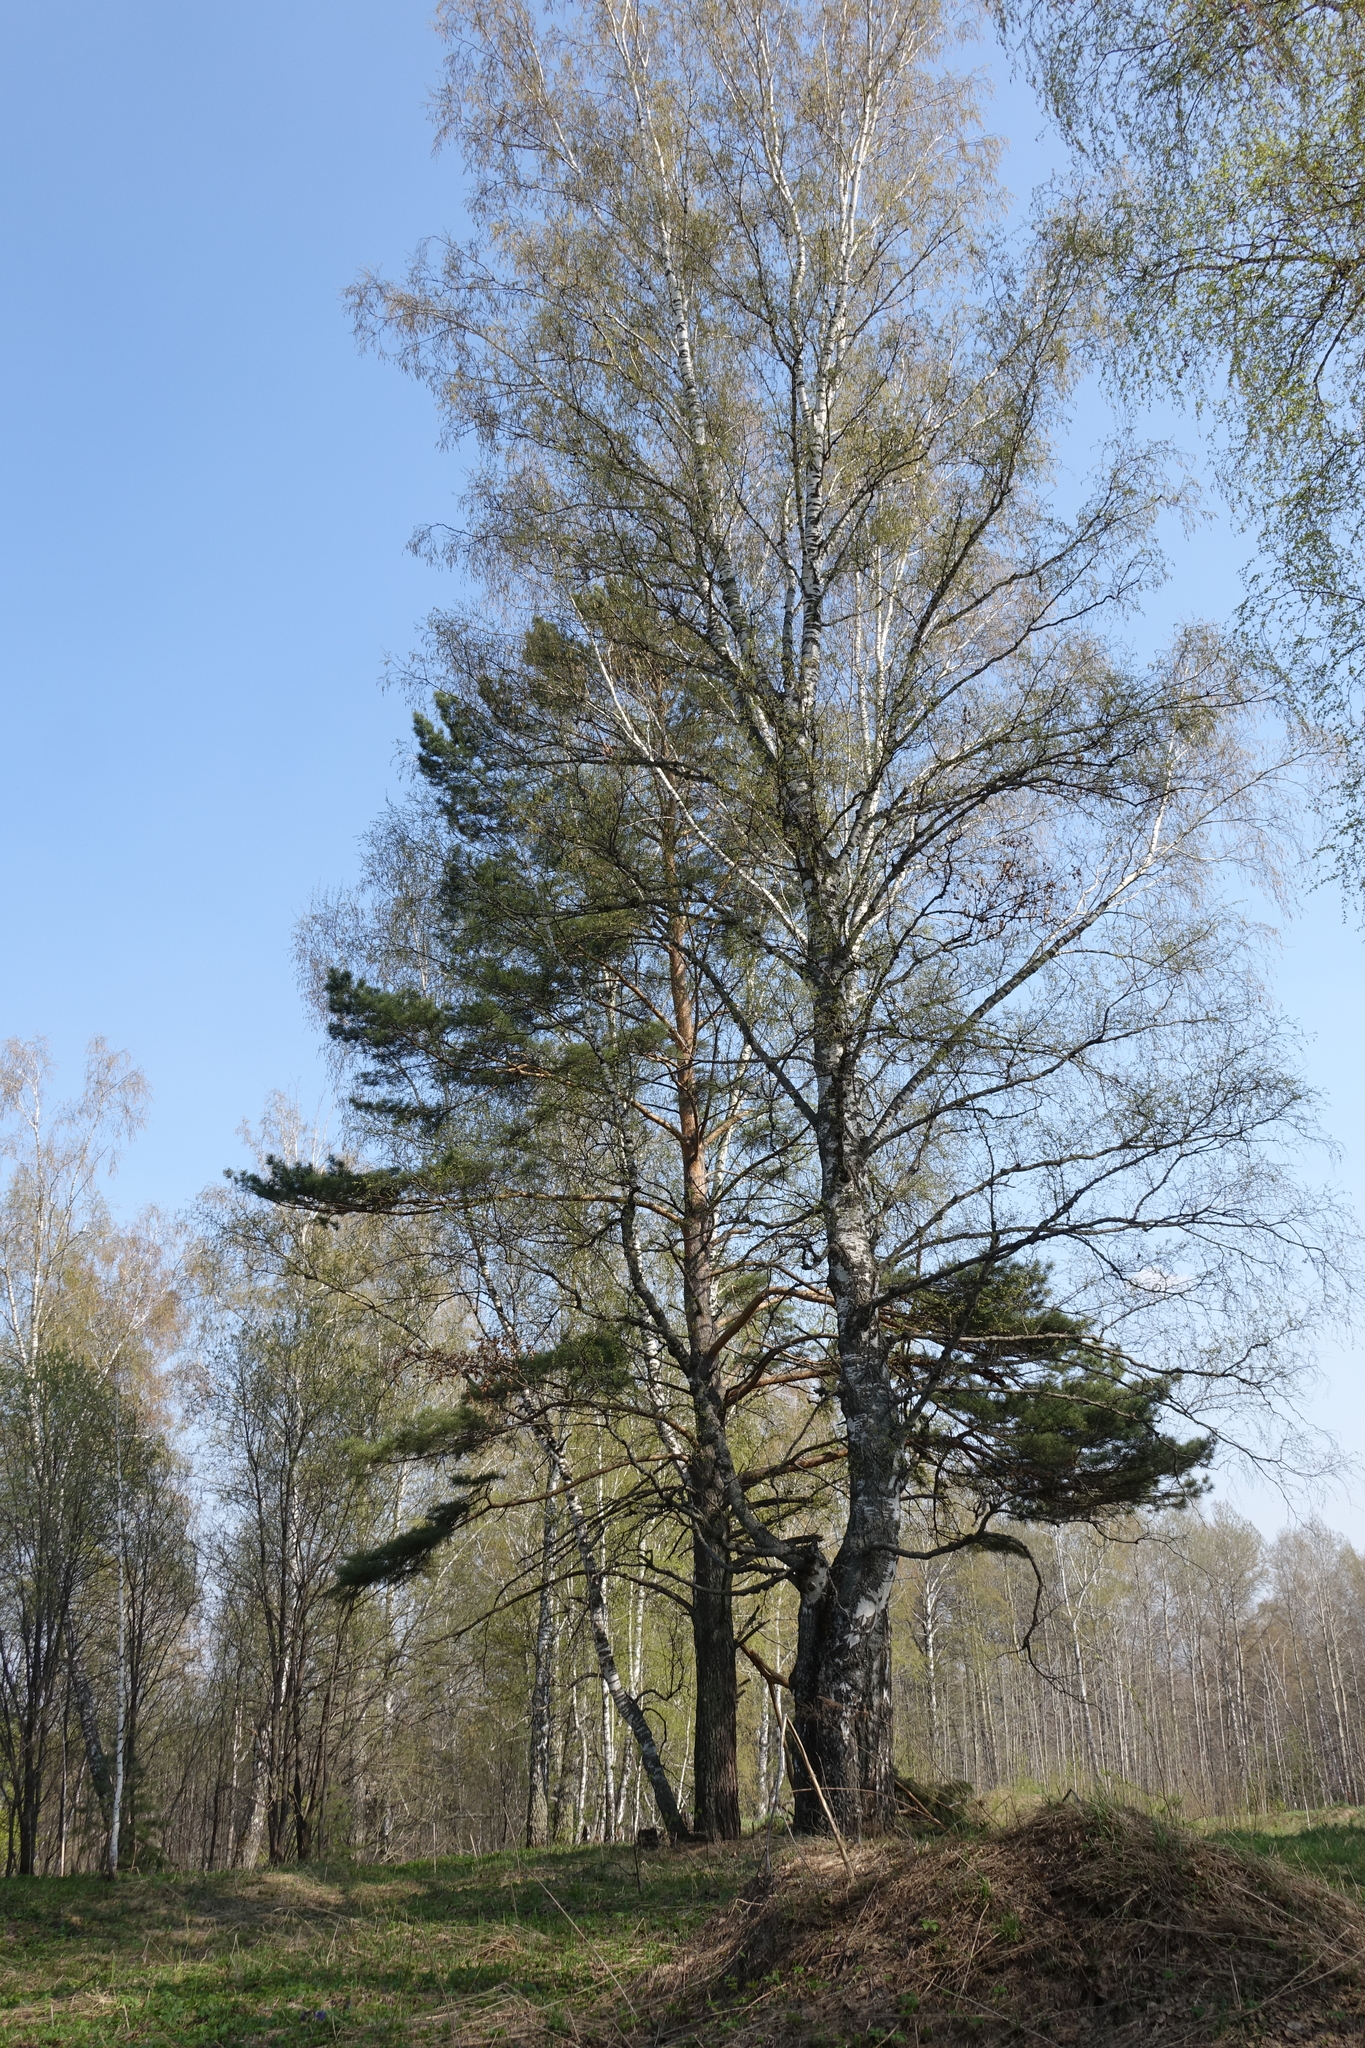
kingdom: Plantae
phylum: Tracheophyta
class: Pinopsida
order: Pinales
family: Pinaceae
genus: Pinus
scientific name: Pinus sylvestris
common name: Scots pine
